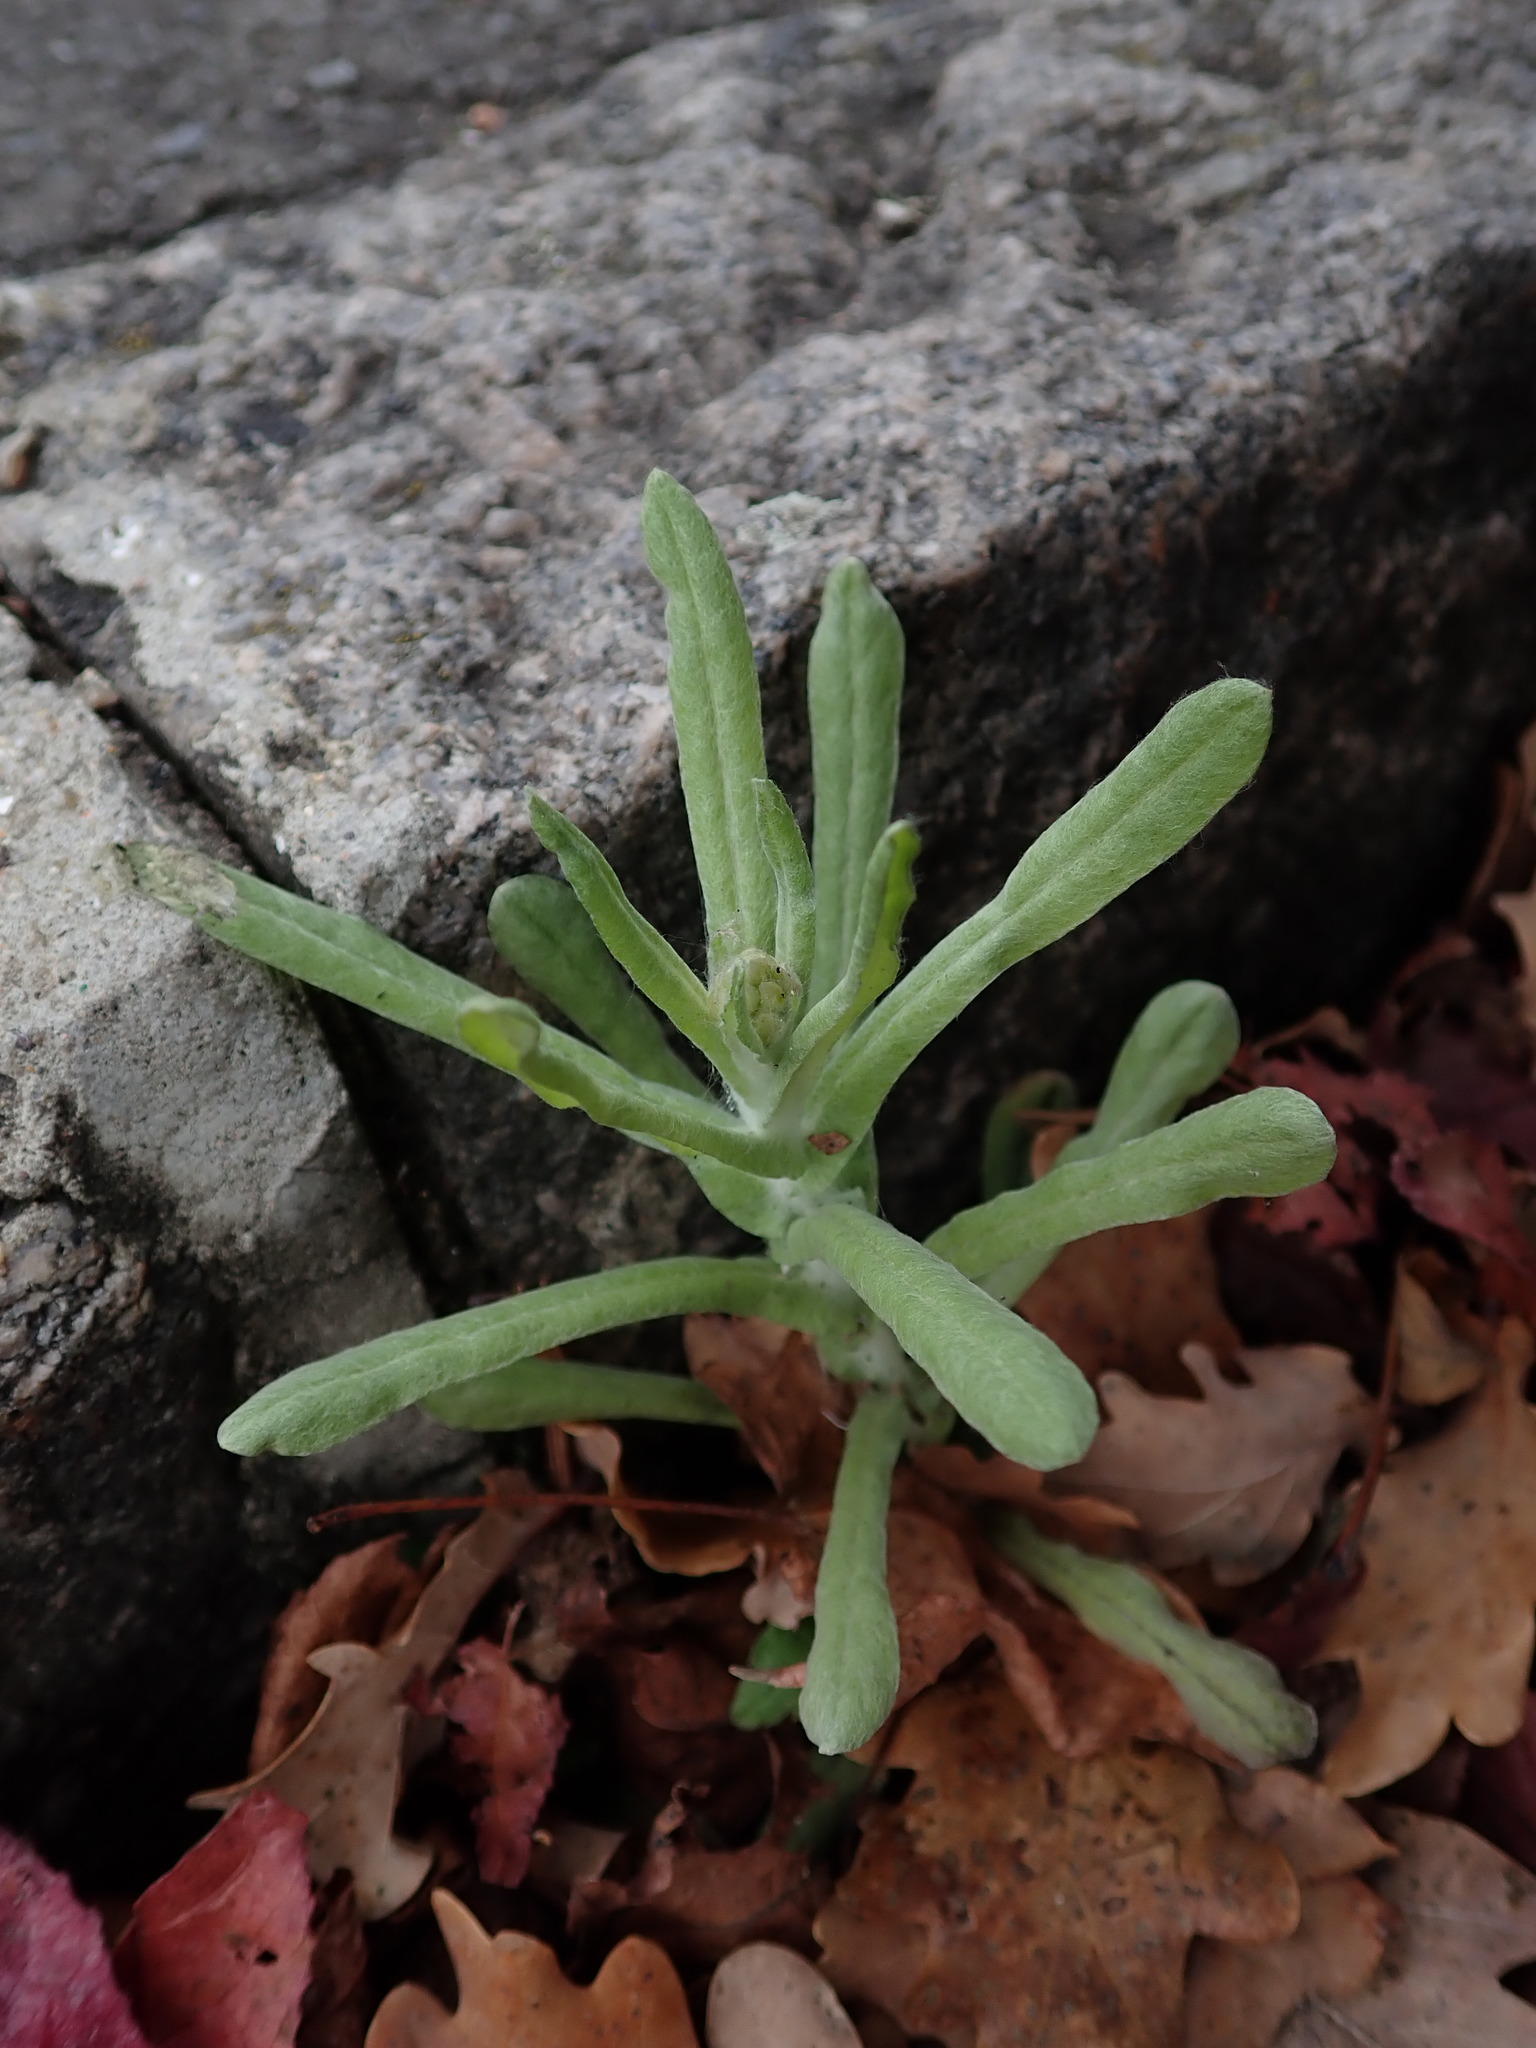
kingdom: Plantae
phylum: Tracheophyta
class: Magnoliopsida
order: Asterales
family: Asteraceae
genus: Helichrysum
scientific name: Helichrysum luteoalbum
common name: Daisy
